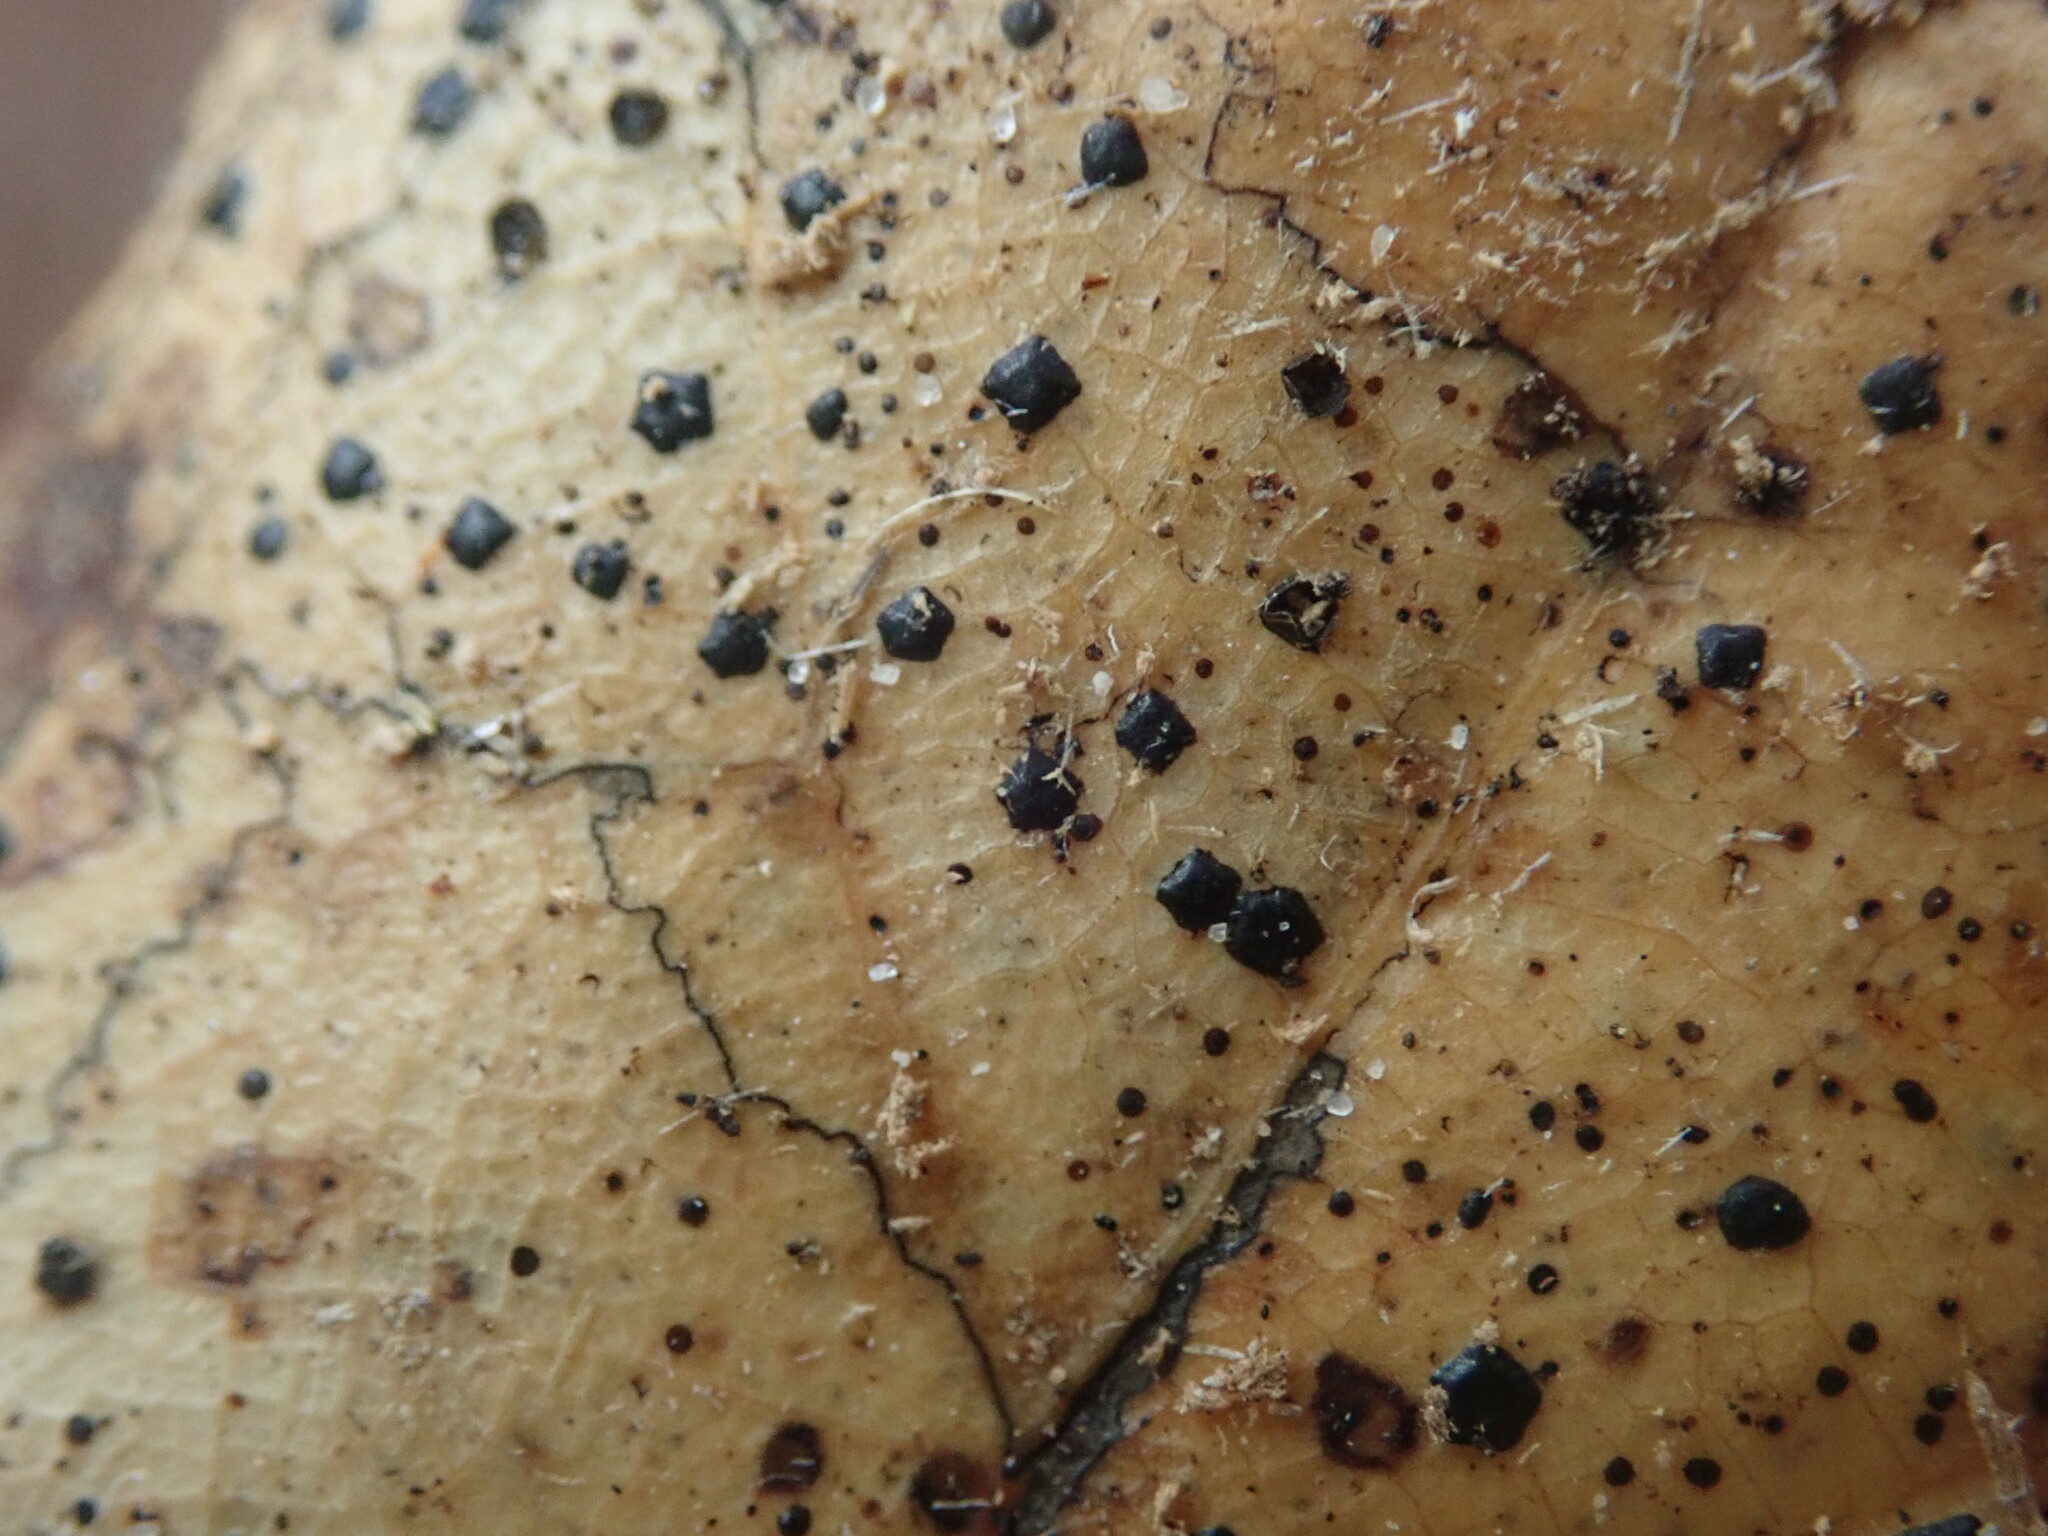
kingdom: Fungi
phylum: Ascomycota
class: Leotiomycetes
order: Rhytismatales
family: Rhytismataceae
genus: Coccomyces
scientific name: Coccomyces dentatus
